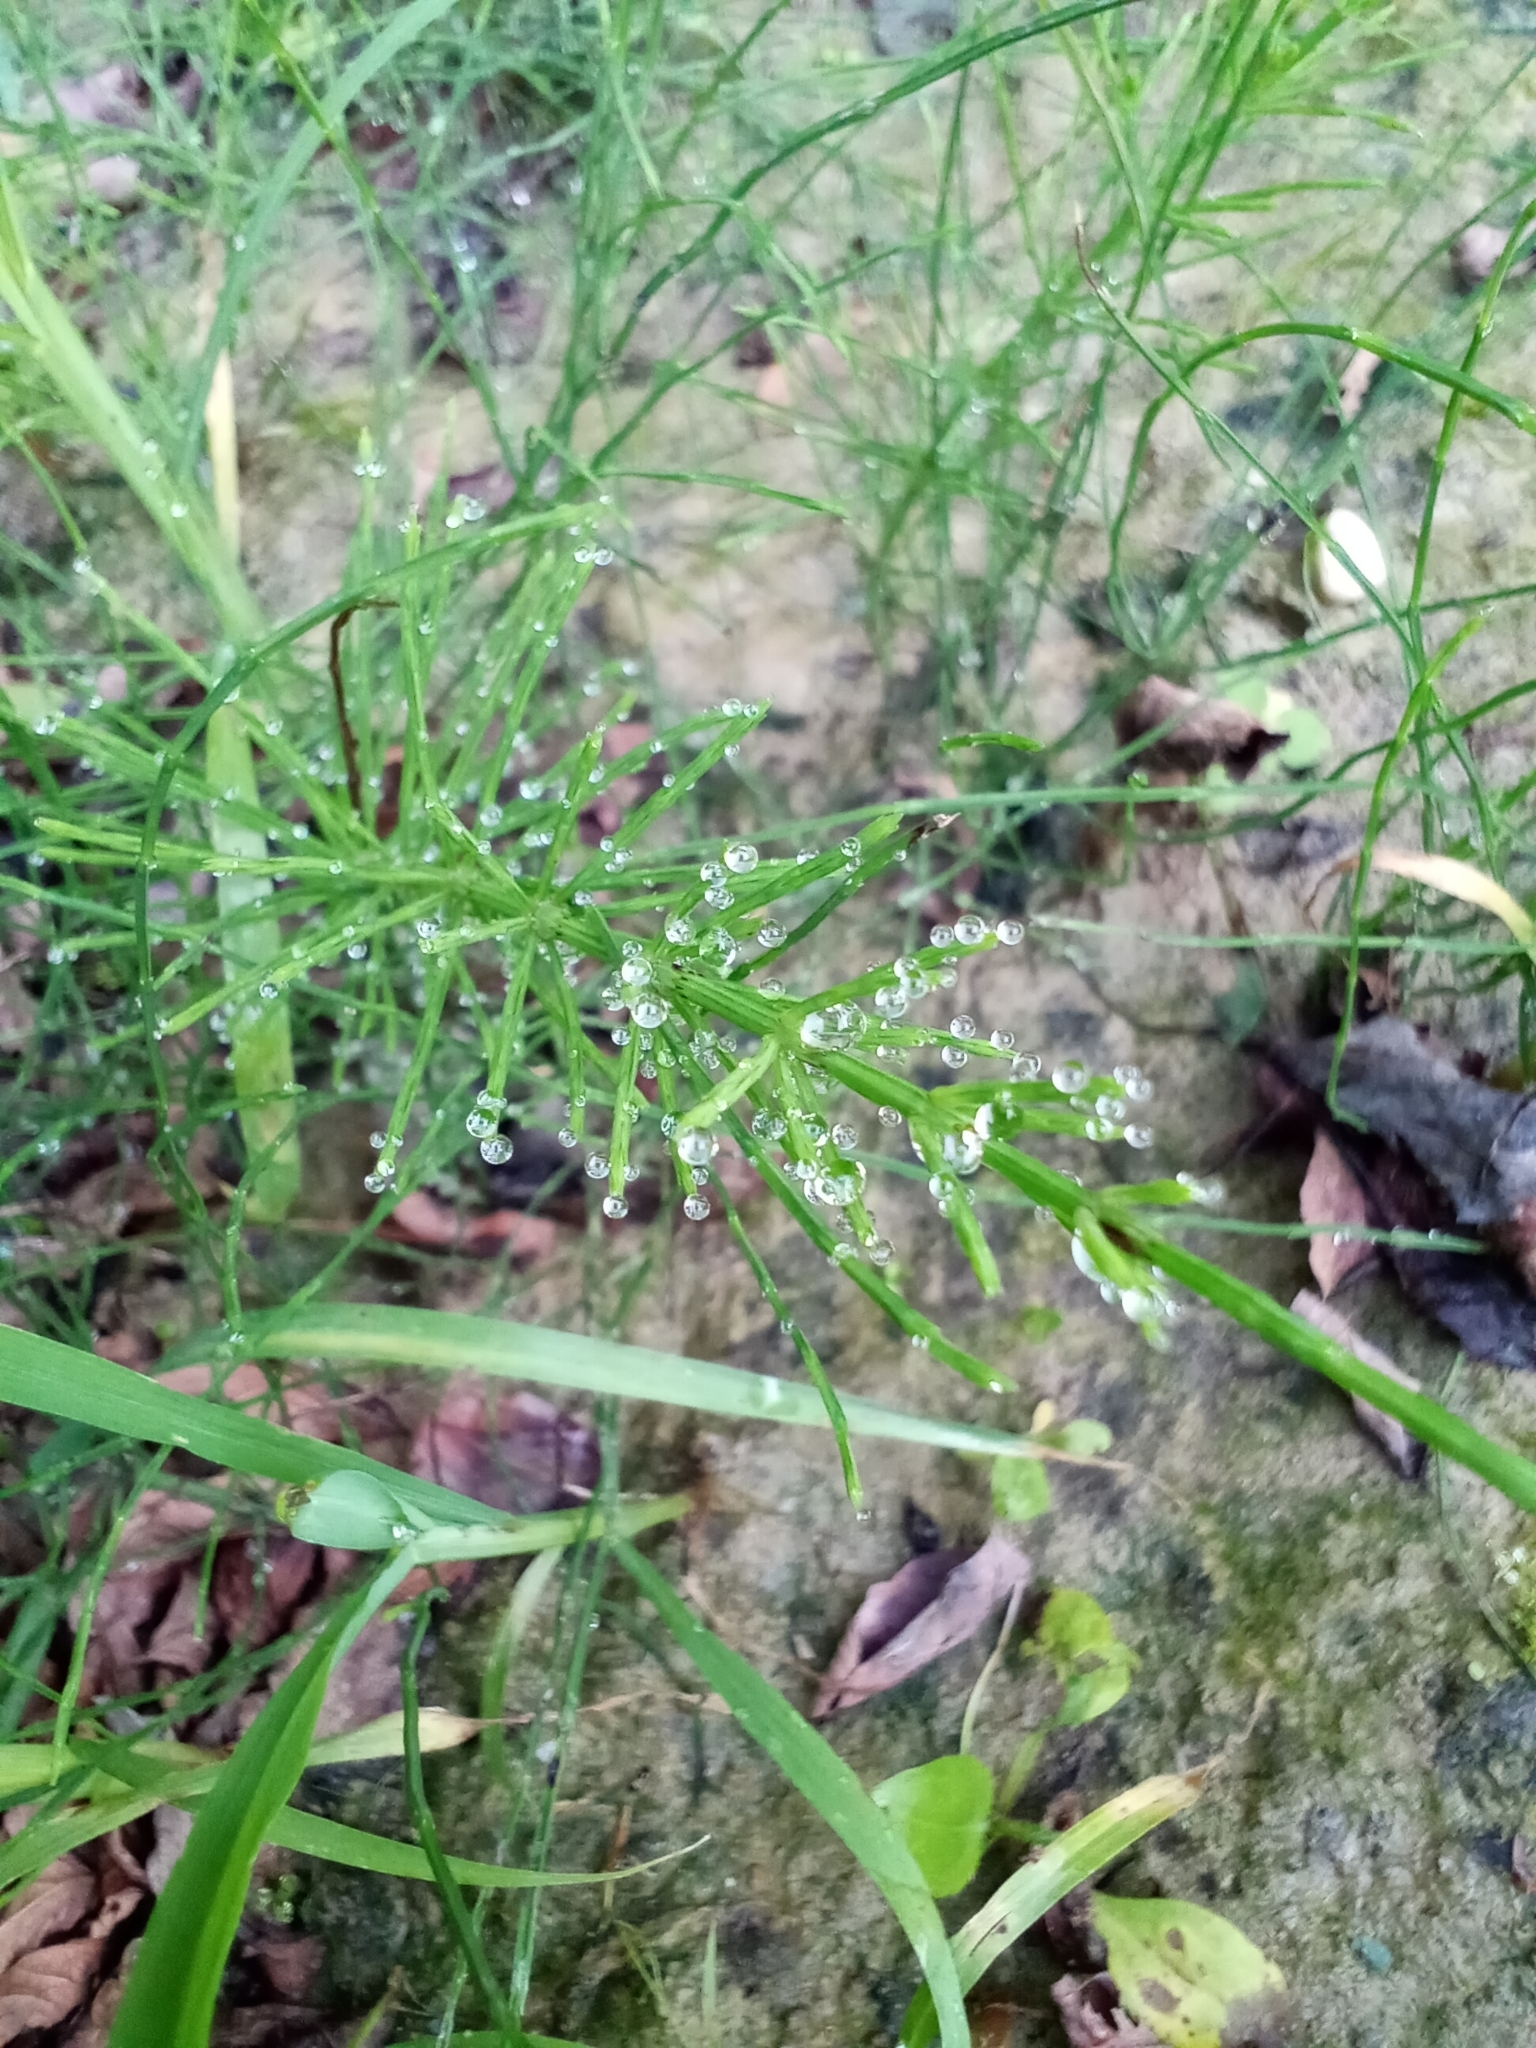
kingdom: Plantae
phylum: Tracheophyta
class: Polypodiopsida
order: Equisetales
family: Equisetaceae
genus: Equisetum
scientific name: Equisetum arvense
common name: Field horsetail
